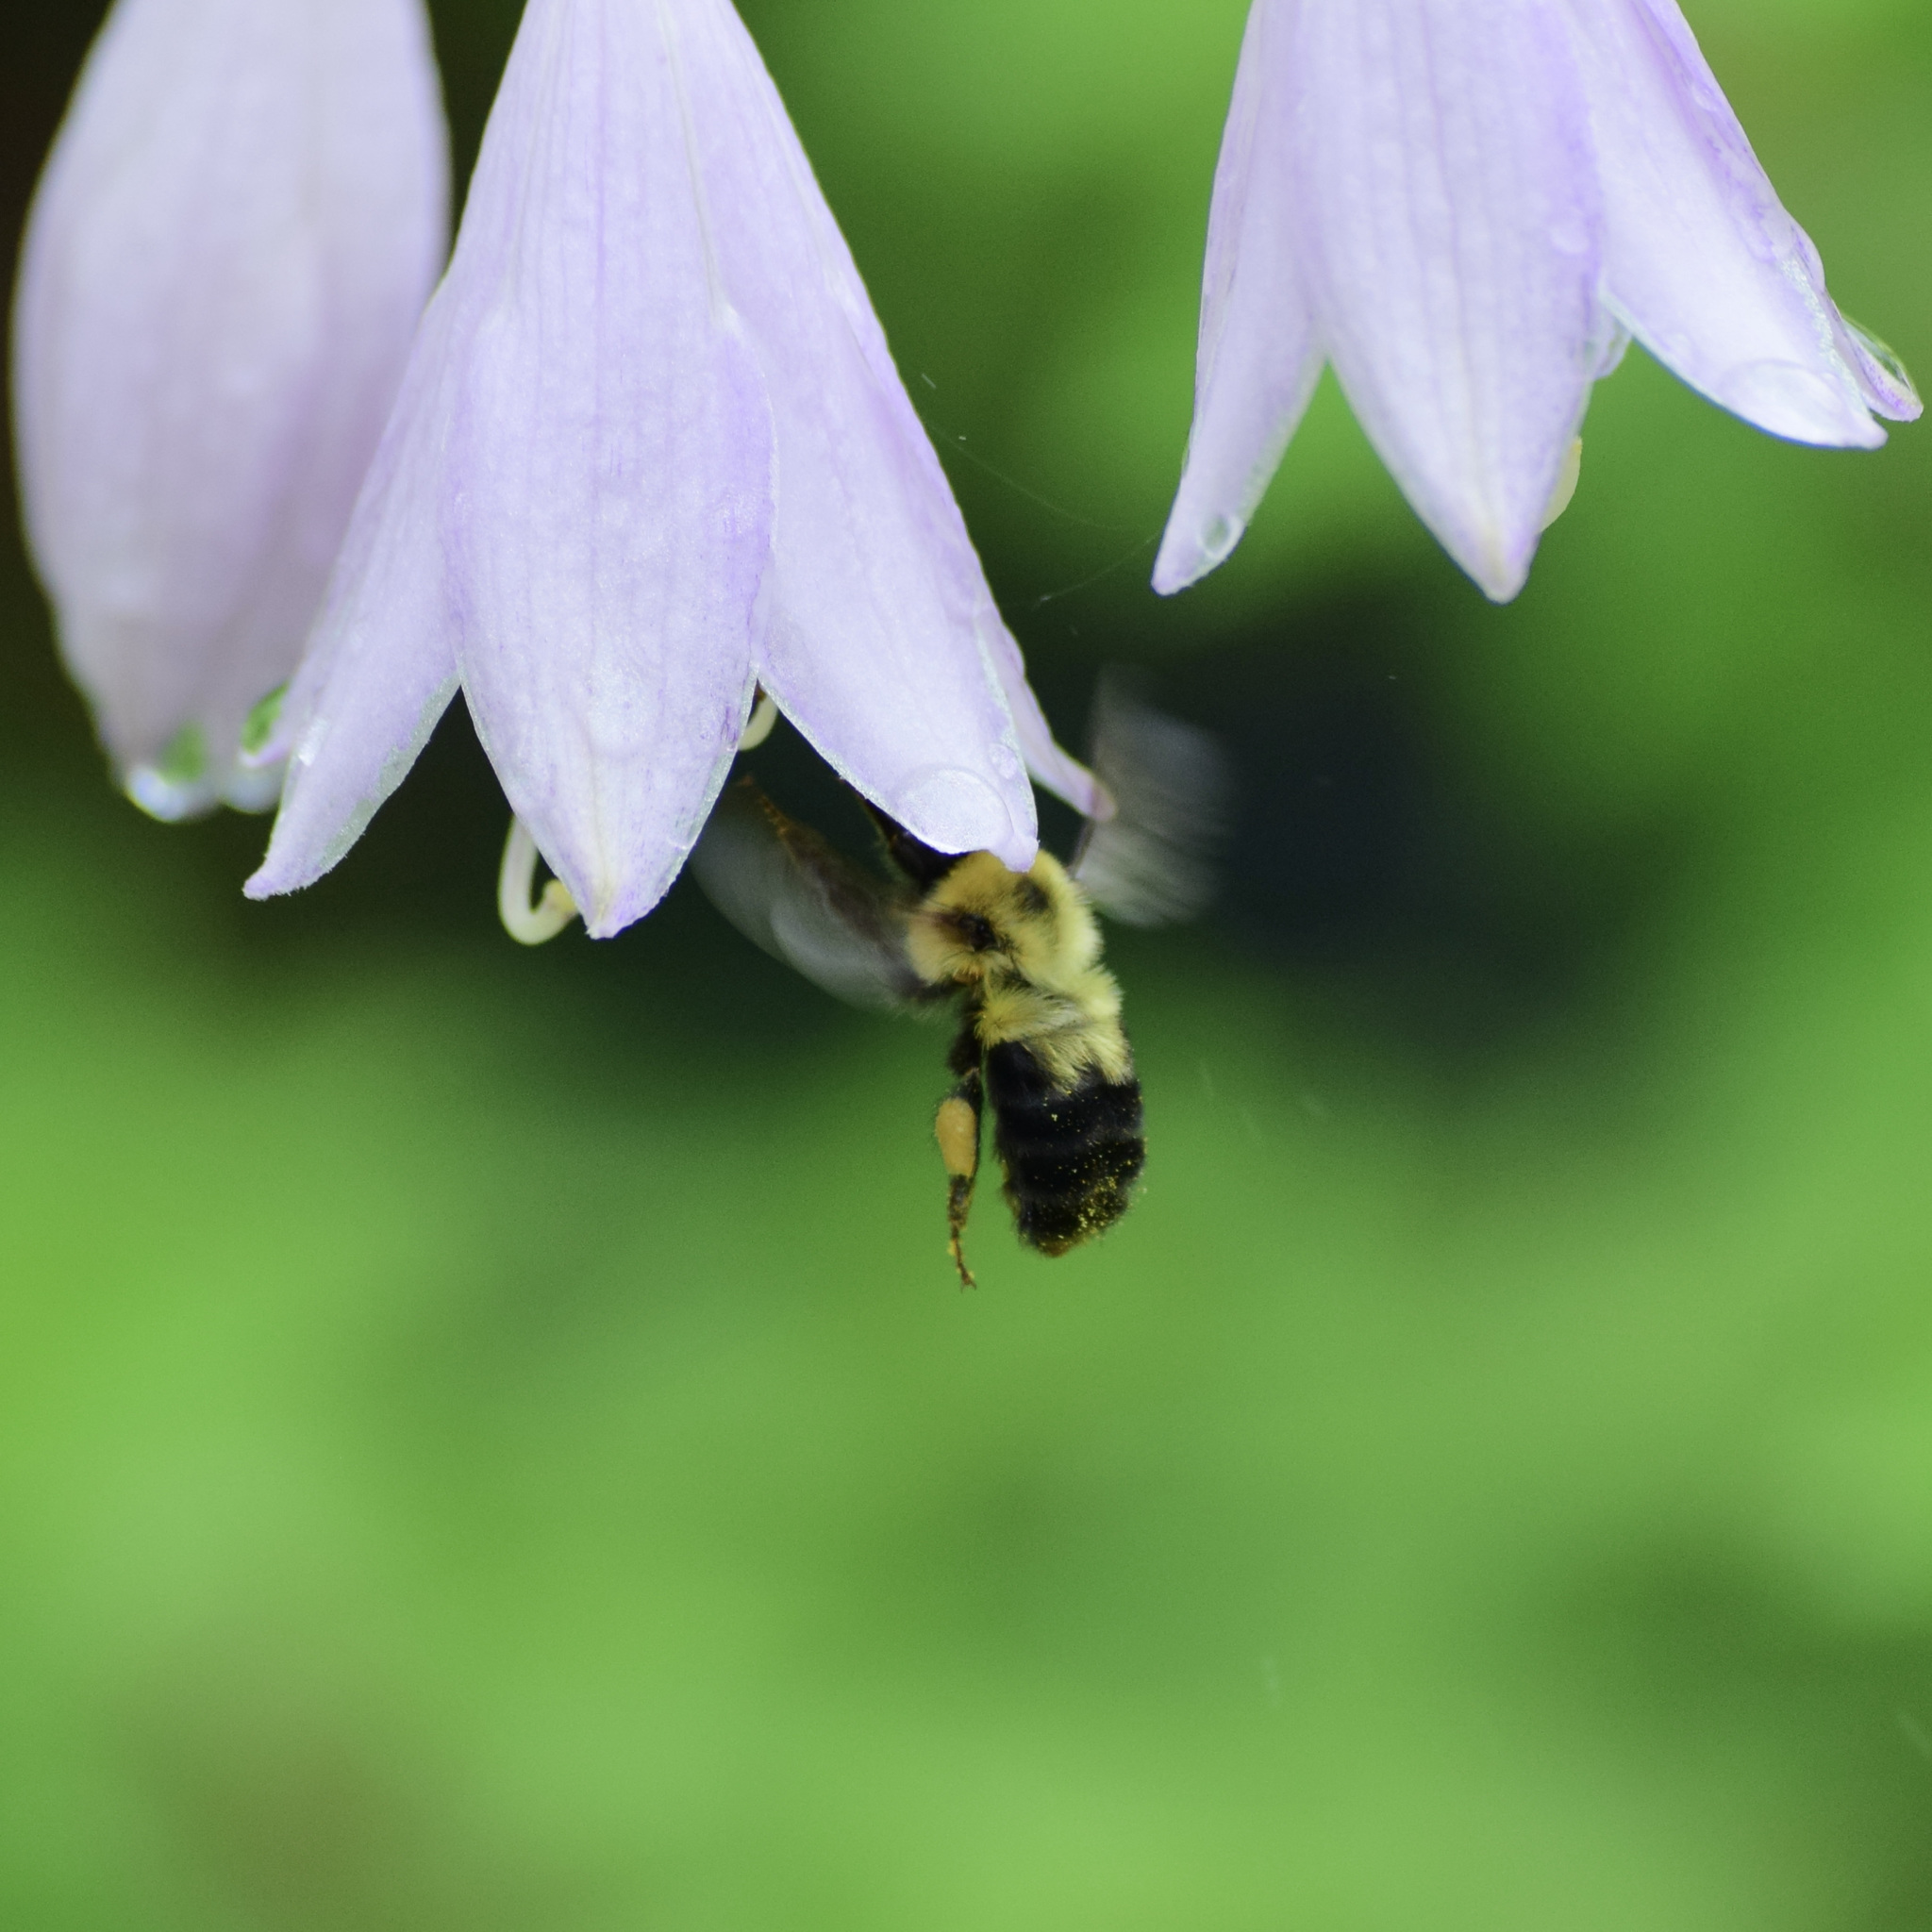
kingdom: Animalia
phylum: Arthropoda
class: Insecta
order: Hymenoptera
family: Apidae
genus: Bombus
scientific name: Bombus bimaculatus
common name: Two-spotted bumble bee
